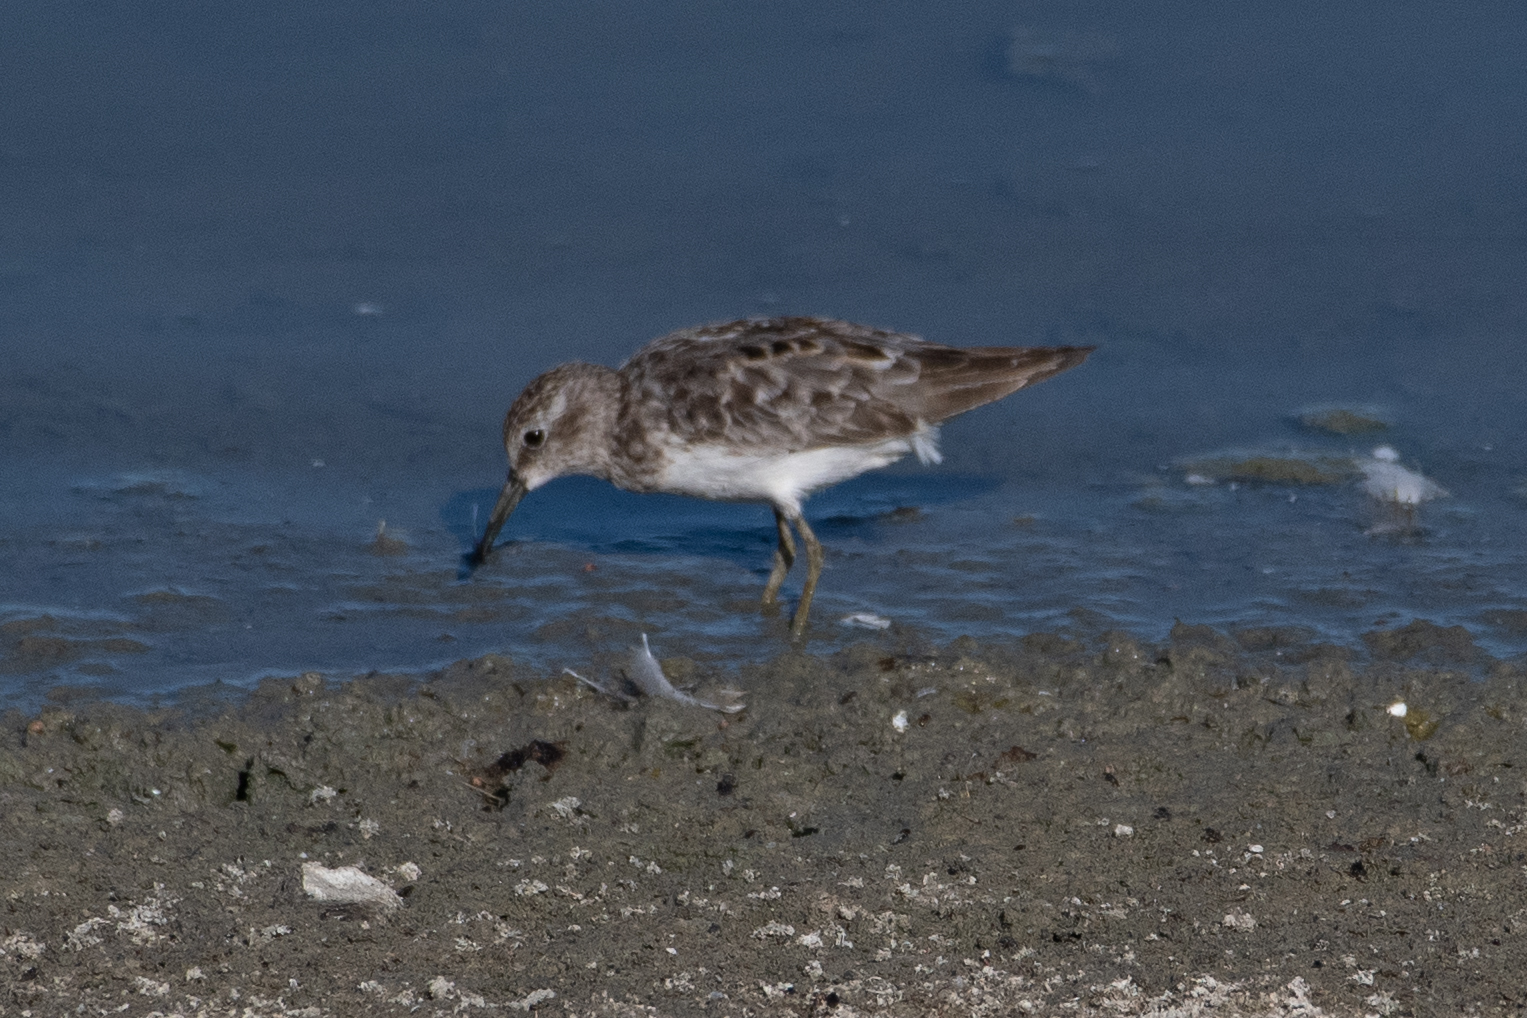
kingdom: Animalia
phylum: Chordata
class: Aves
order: Charadriiformes
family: Scolopacidae
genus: Calidris
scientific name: Calidris minutilla
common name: Least sandpiper
